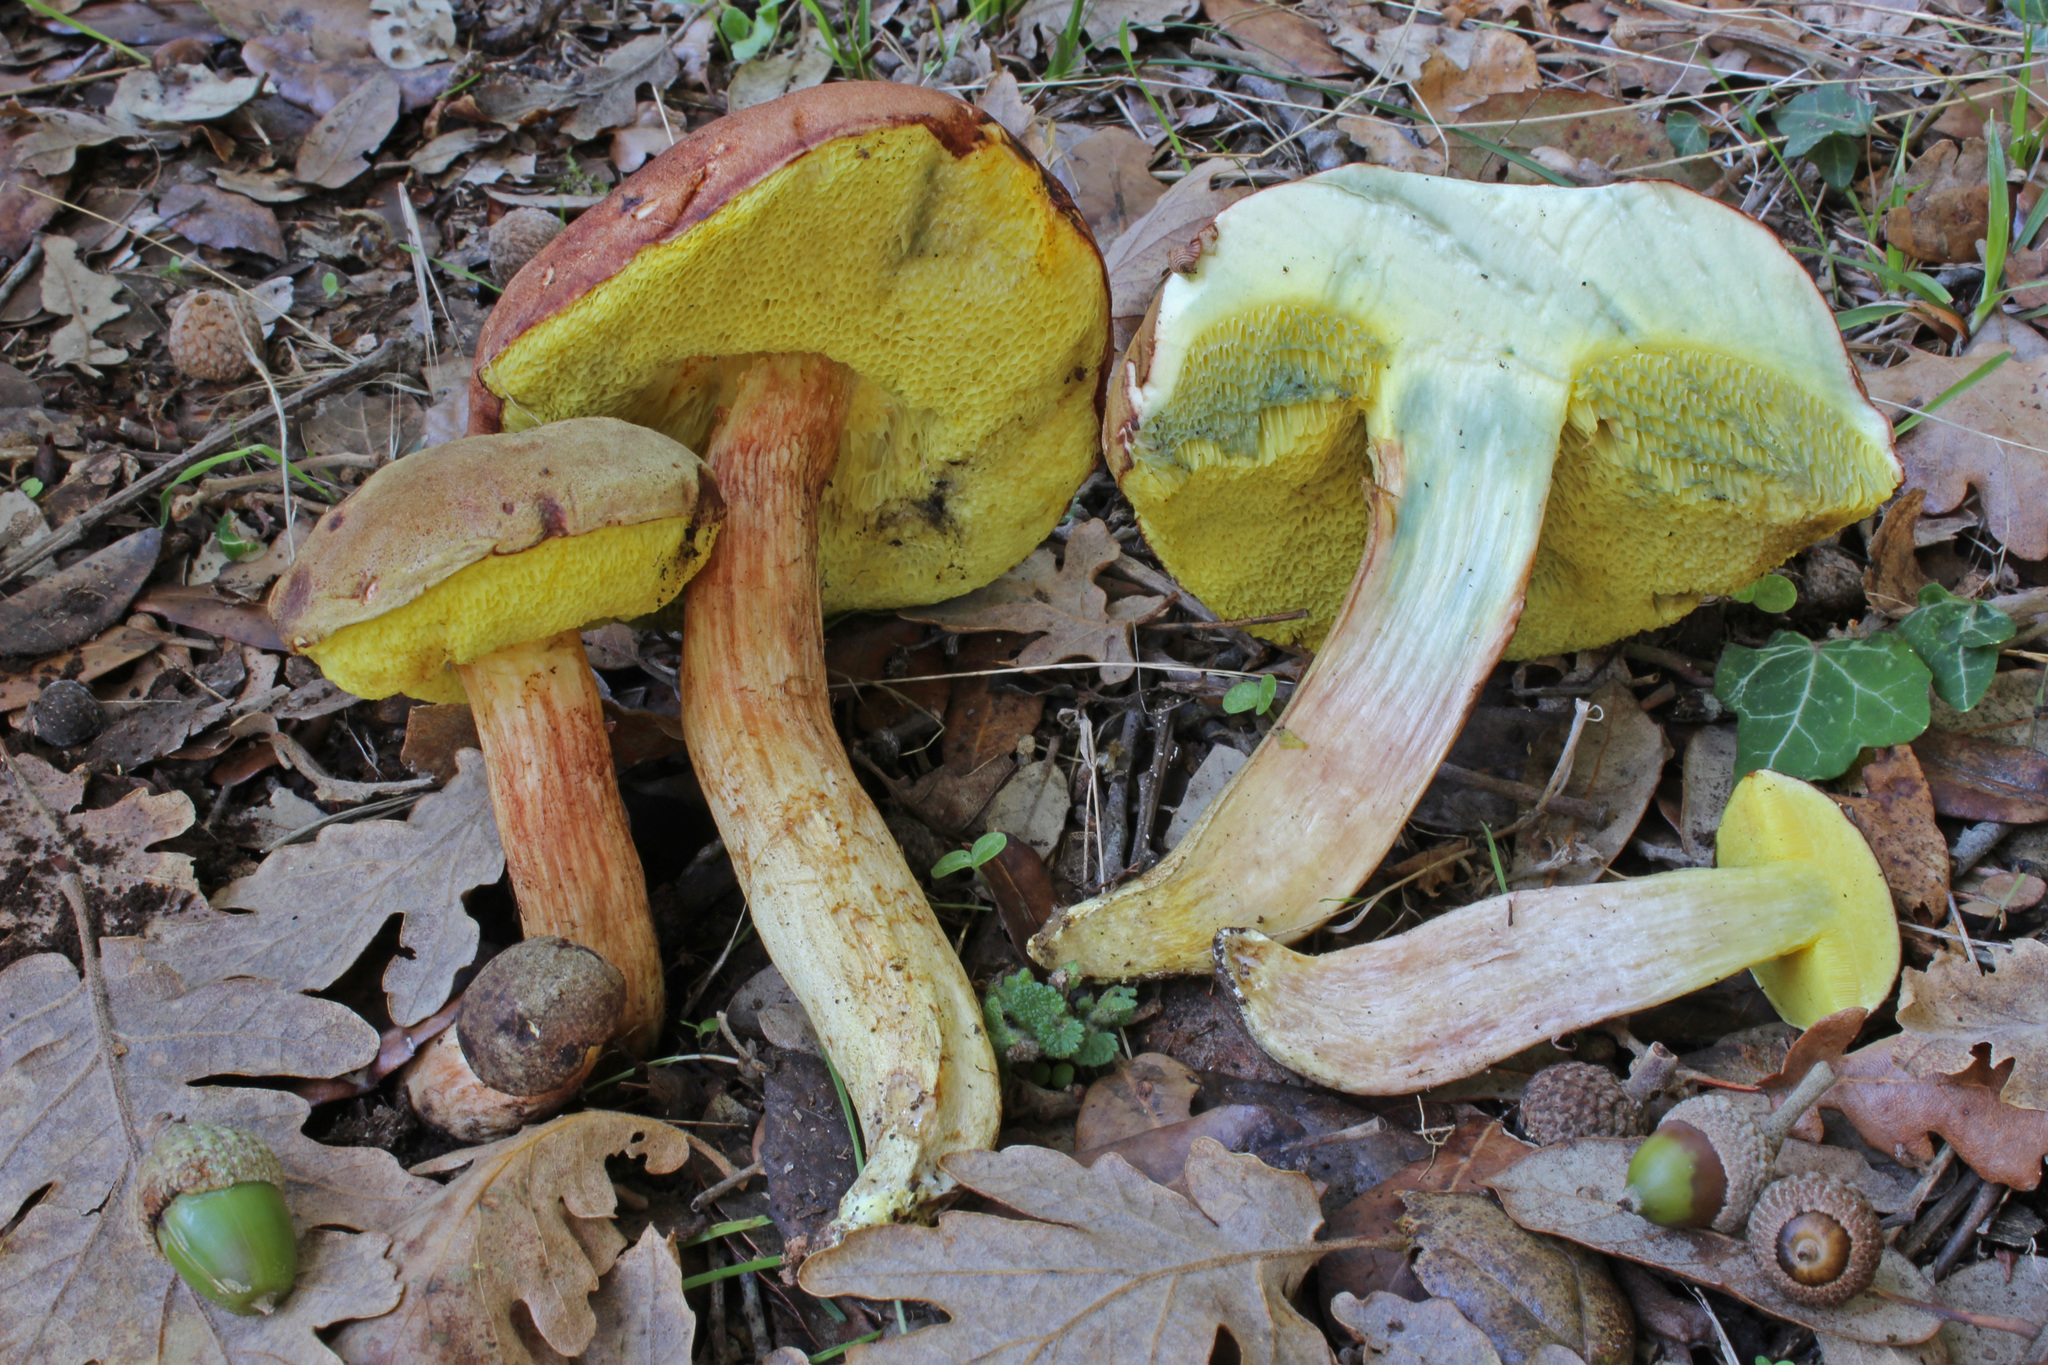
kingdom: Fungi
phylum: Basidiomycota
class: Agaricomycetes
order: Boletales
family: Boletaceae
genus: Xerocomus
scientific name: Xerocomus subtomentosus
